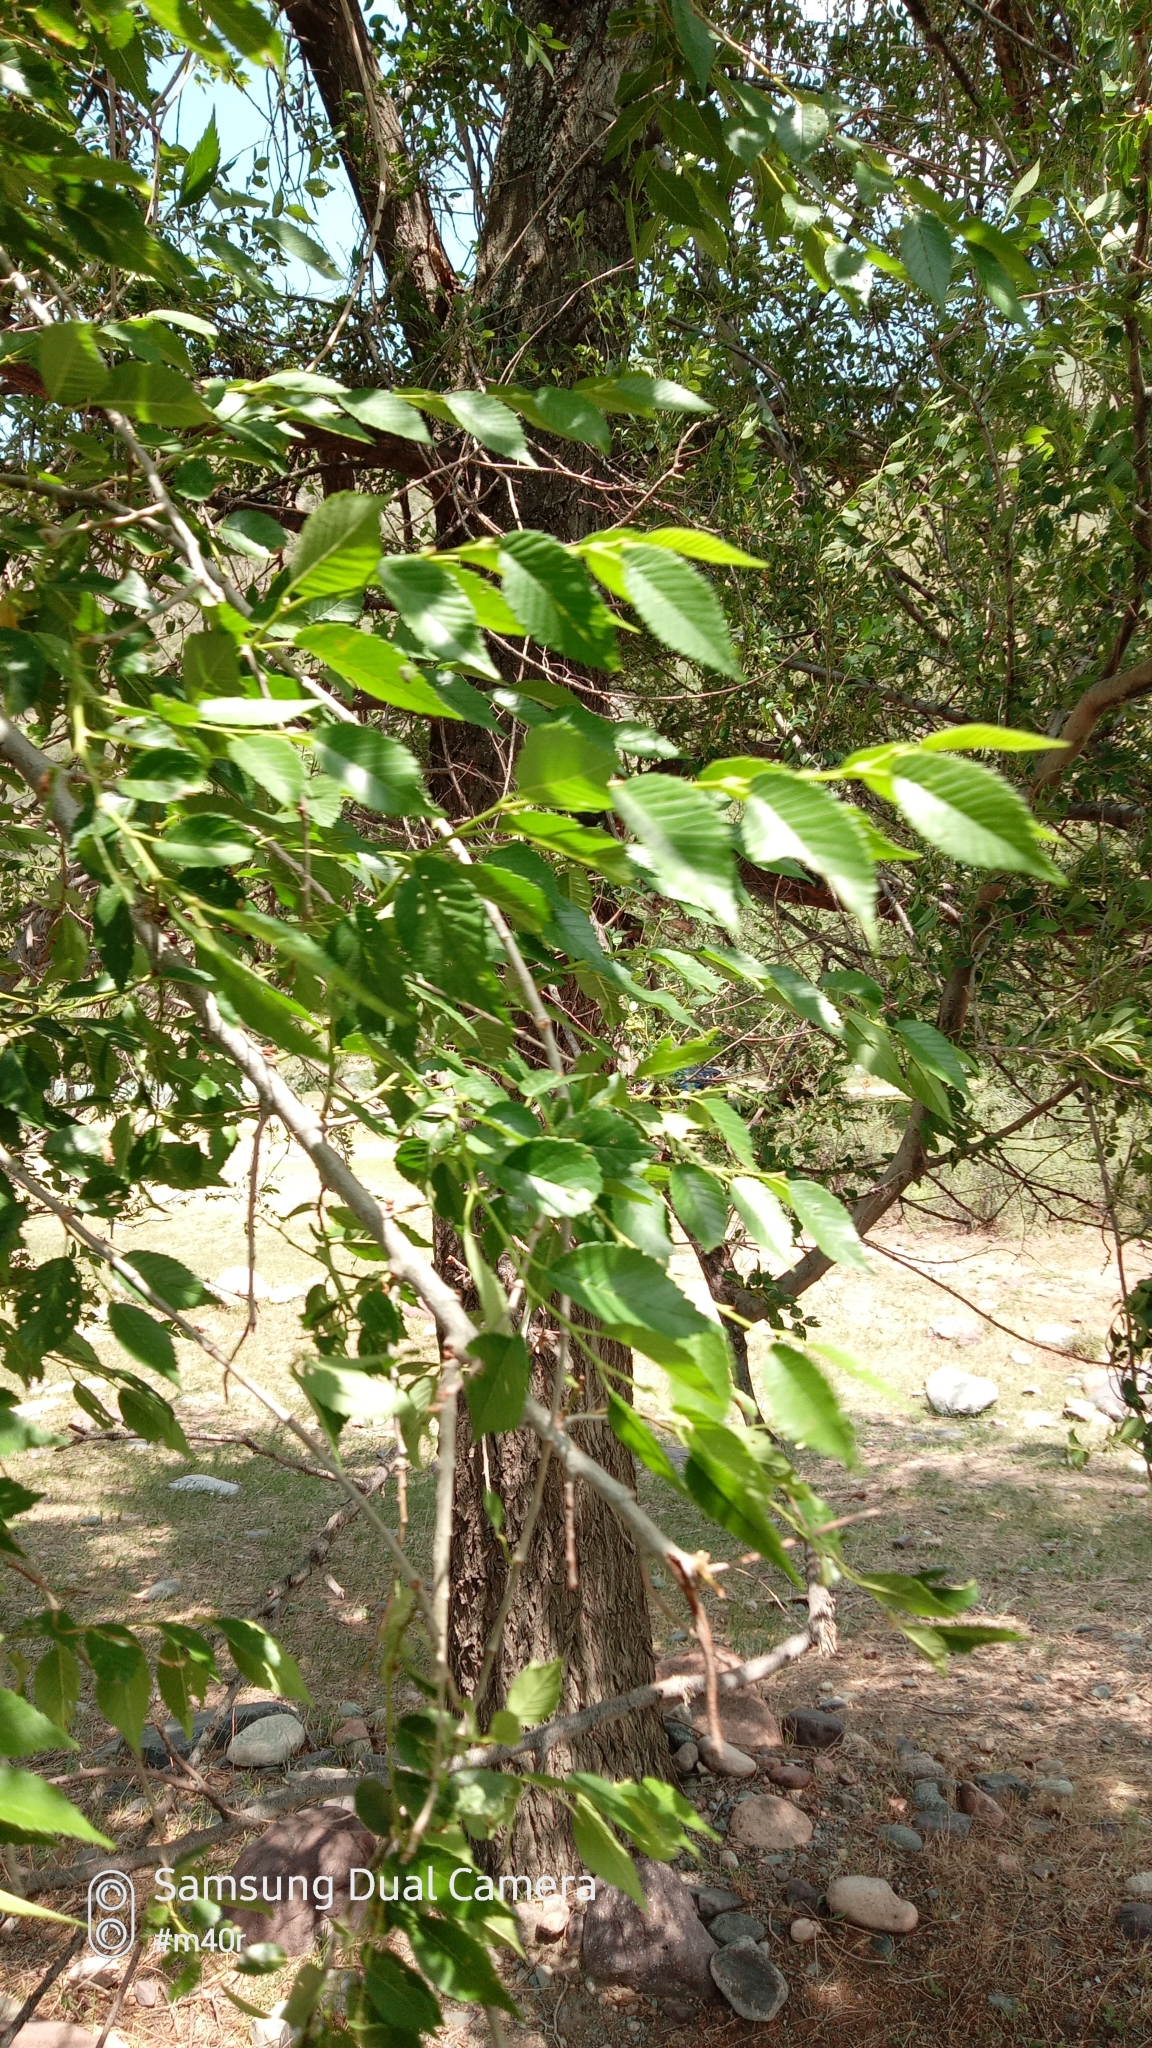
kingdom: Plantae
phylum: Tracheophyta
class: Magnoliopsida
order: Rosales
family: Ulmaceae
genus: Ulmus
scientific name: Ulmus pumila
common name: Siberian elm
